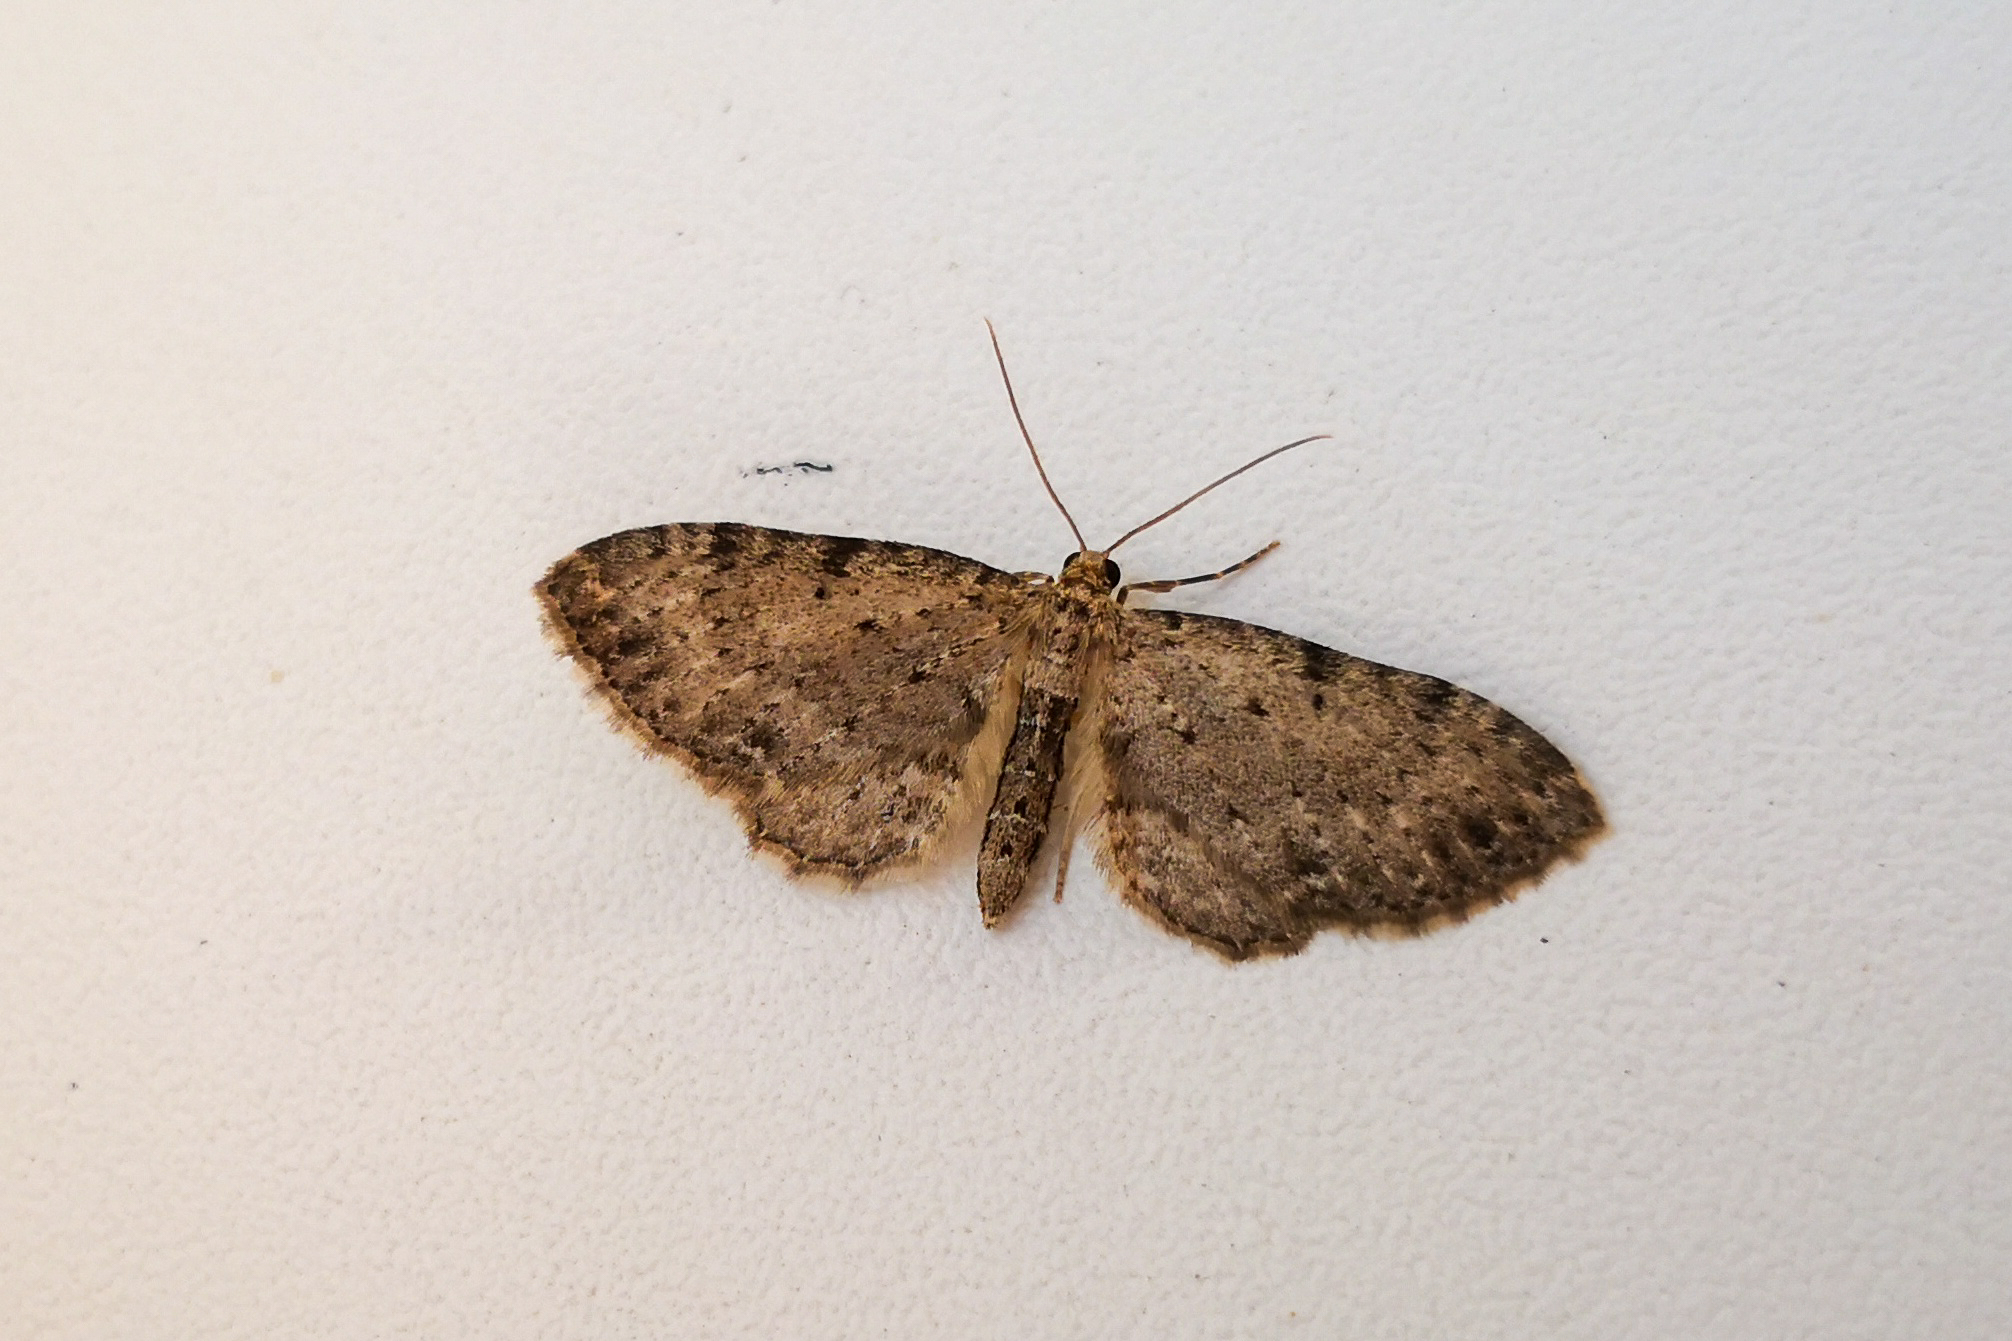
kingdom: Animalia
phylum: Arthropoda
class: Insecta
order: Lepidoptera
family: Geometridae
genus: Anticollix
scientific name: Anticollix sparsata
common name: Dentated pug
